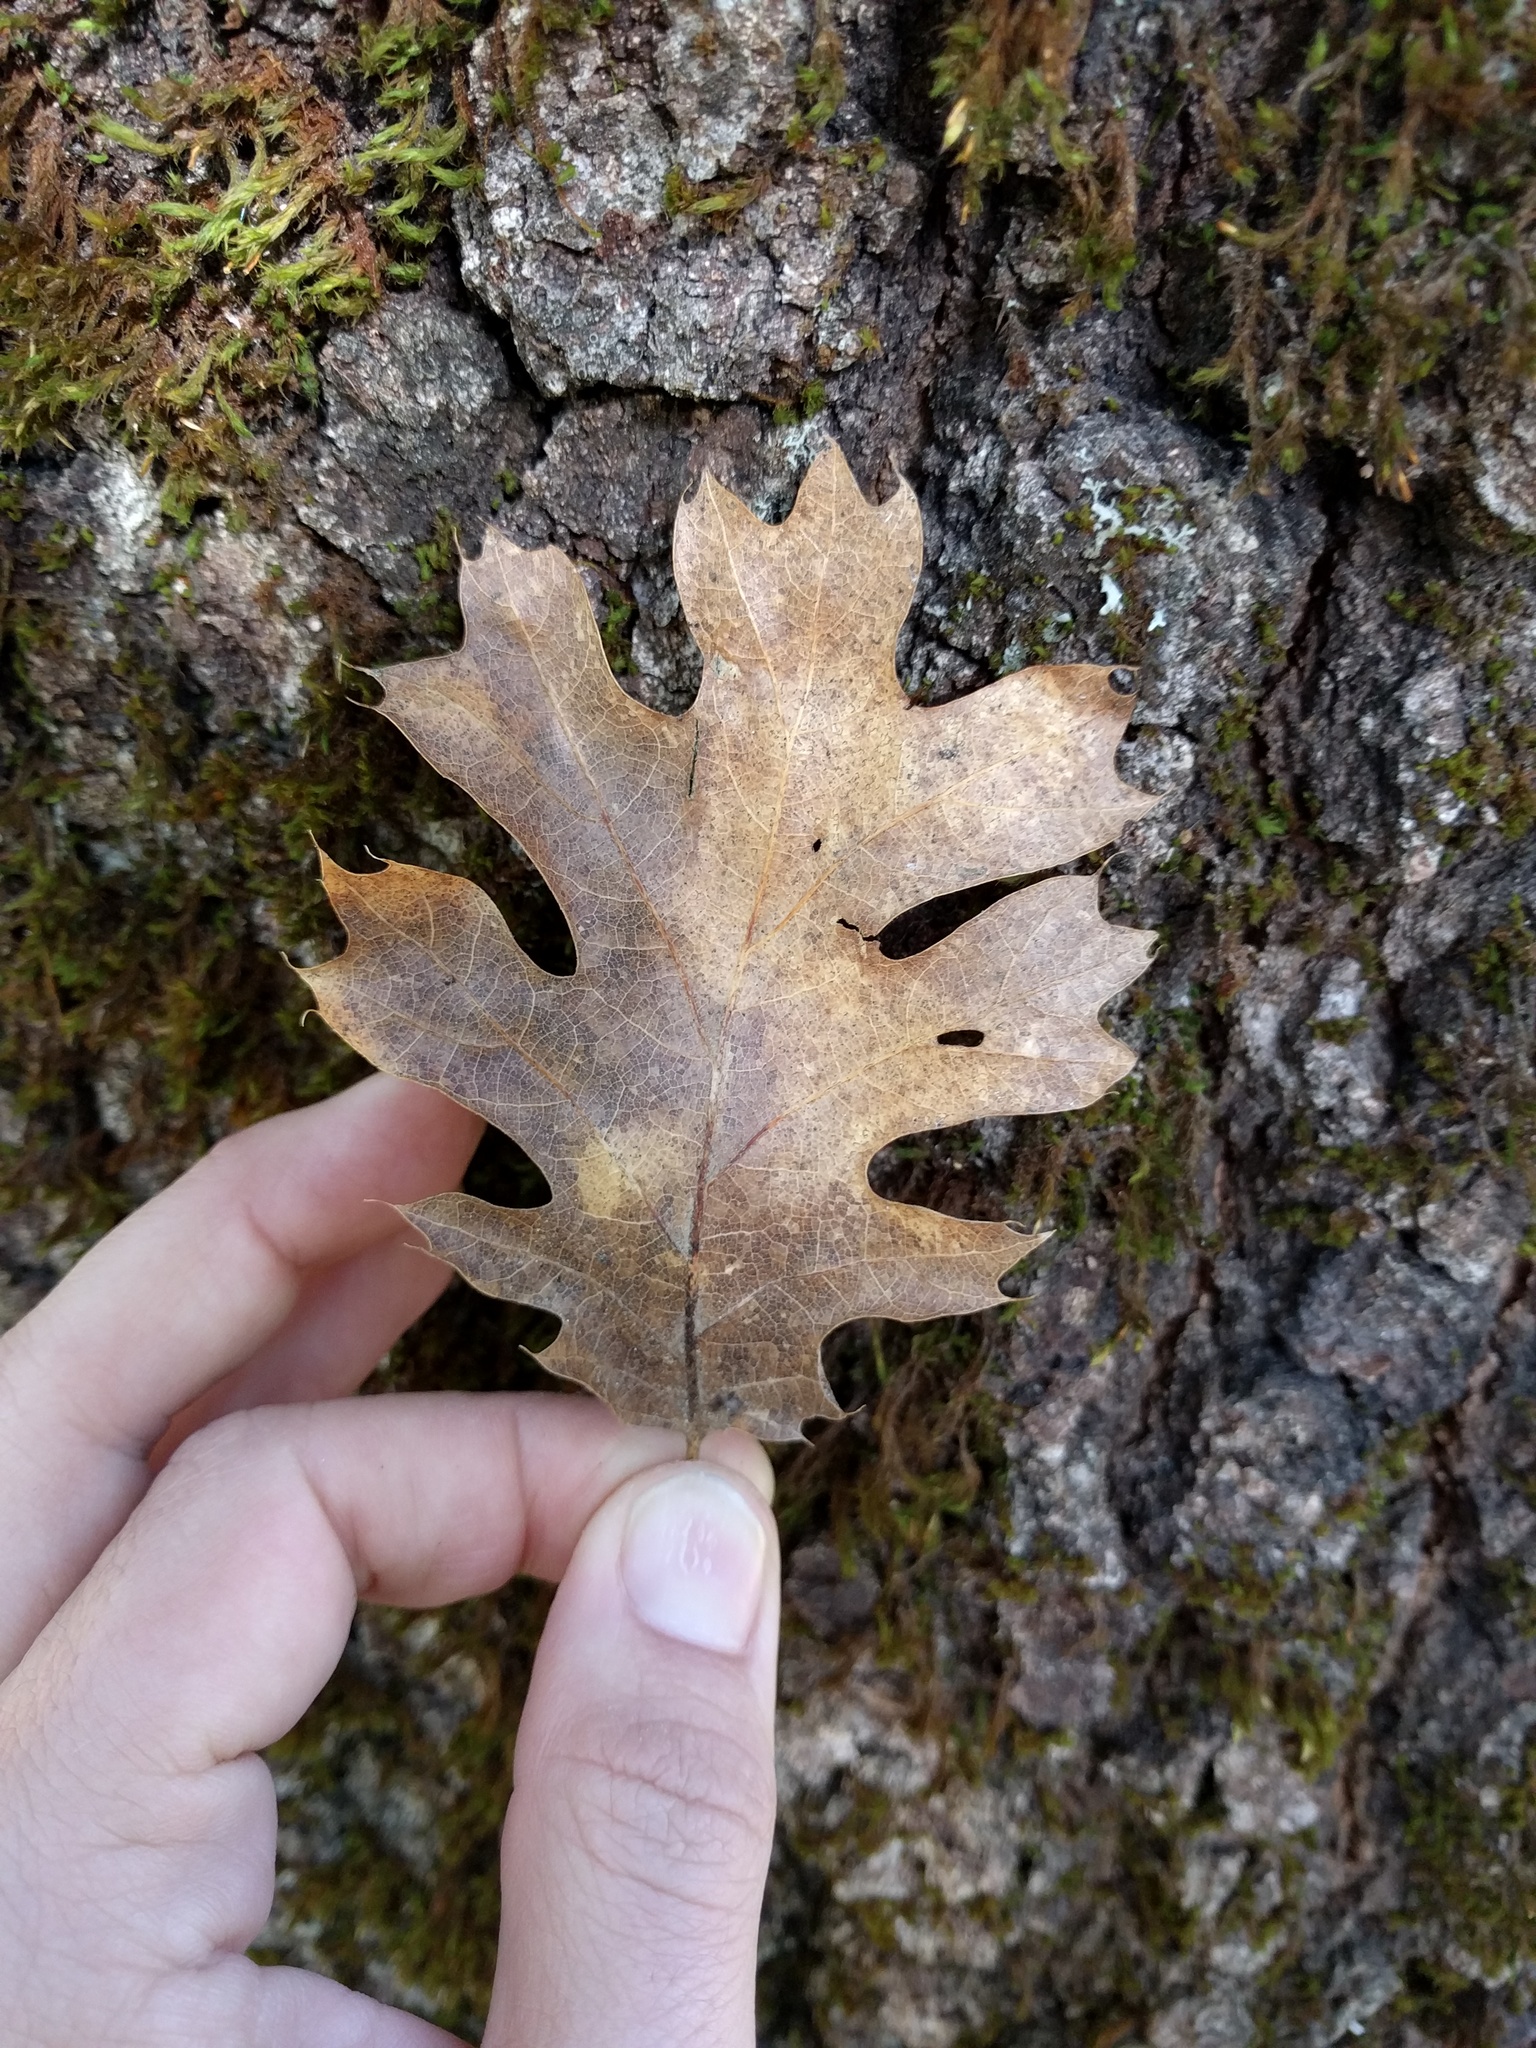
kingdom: Plantae
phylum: Tracheophyta
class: Magnoliopsida
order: Fagales
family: Fagaceae
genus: Quercus
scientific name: Quercus kelloggii
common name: California black oak
